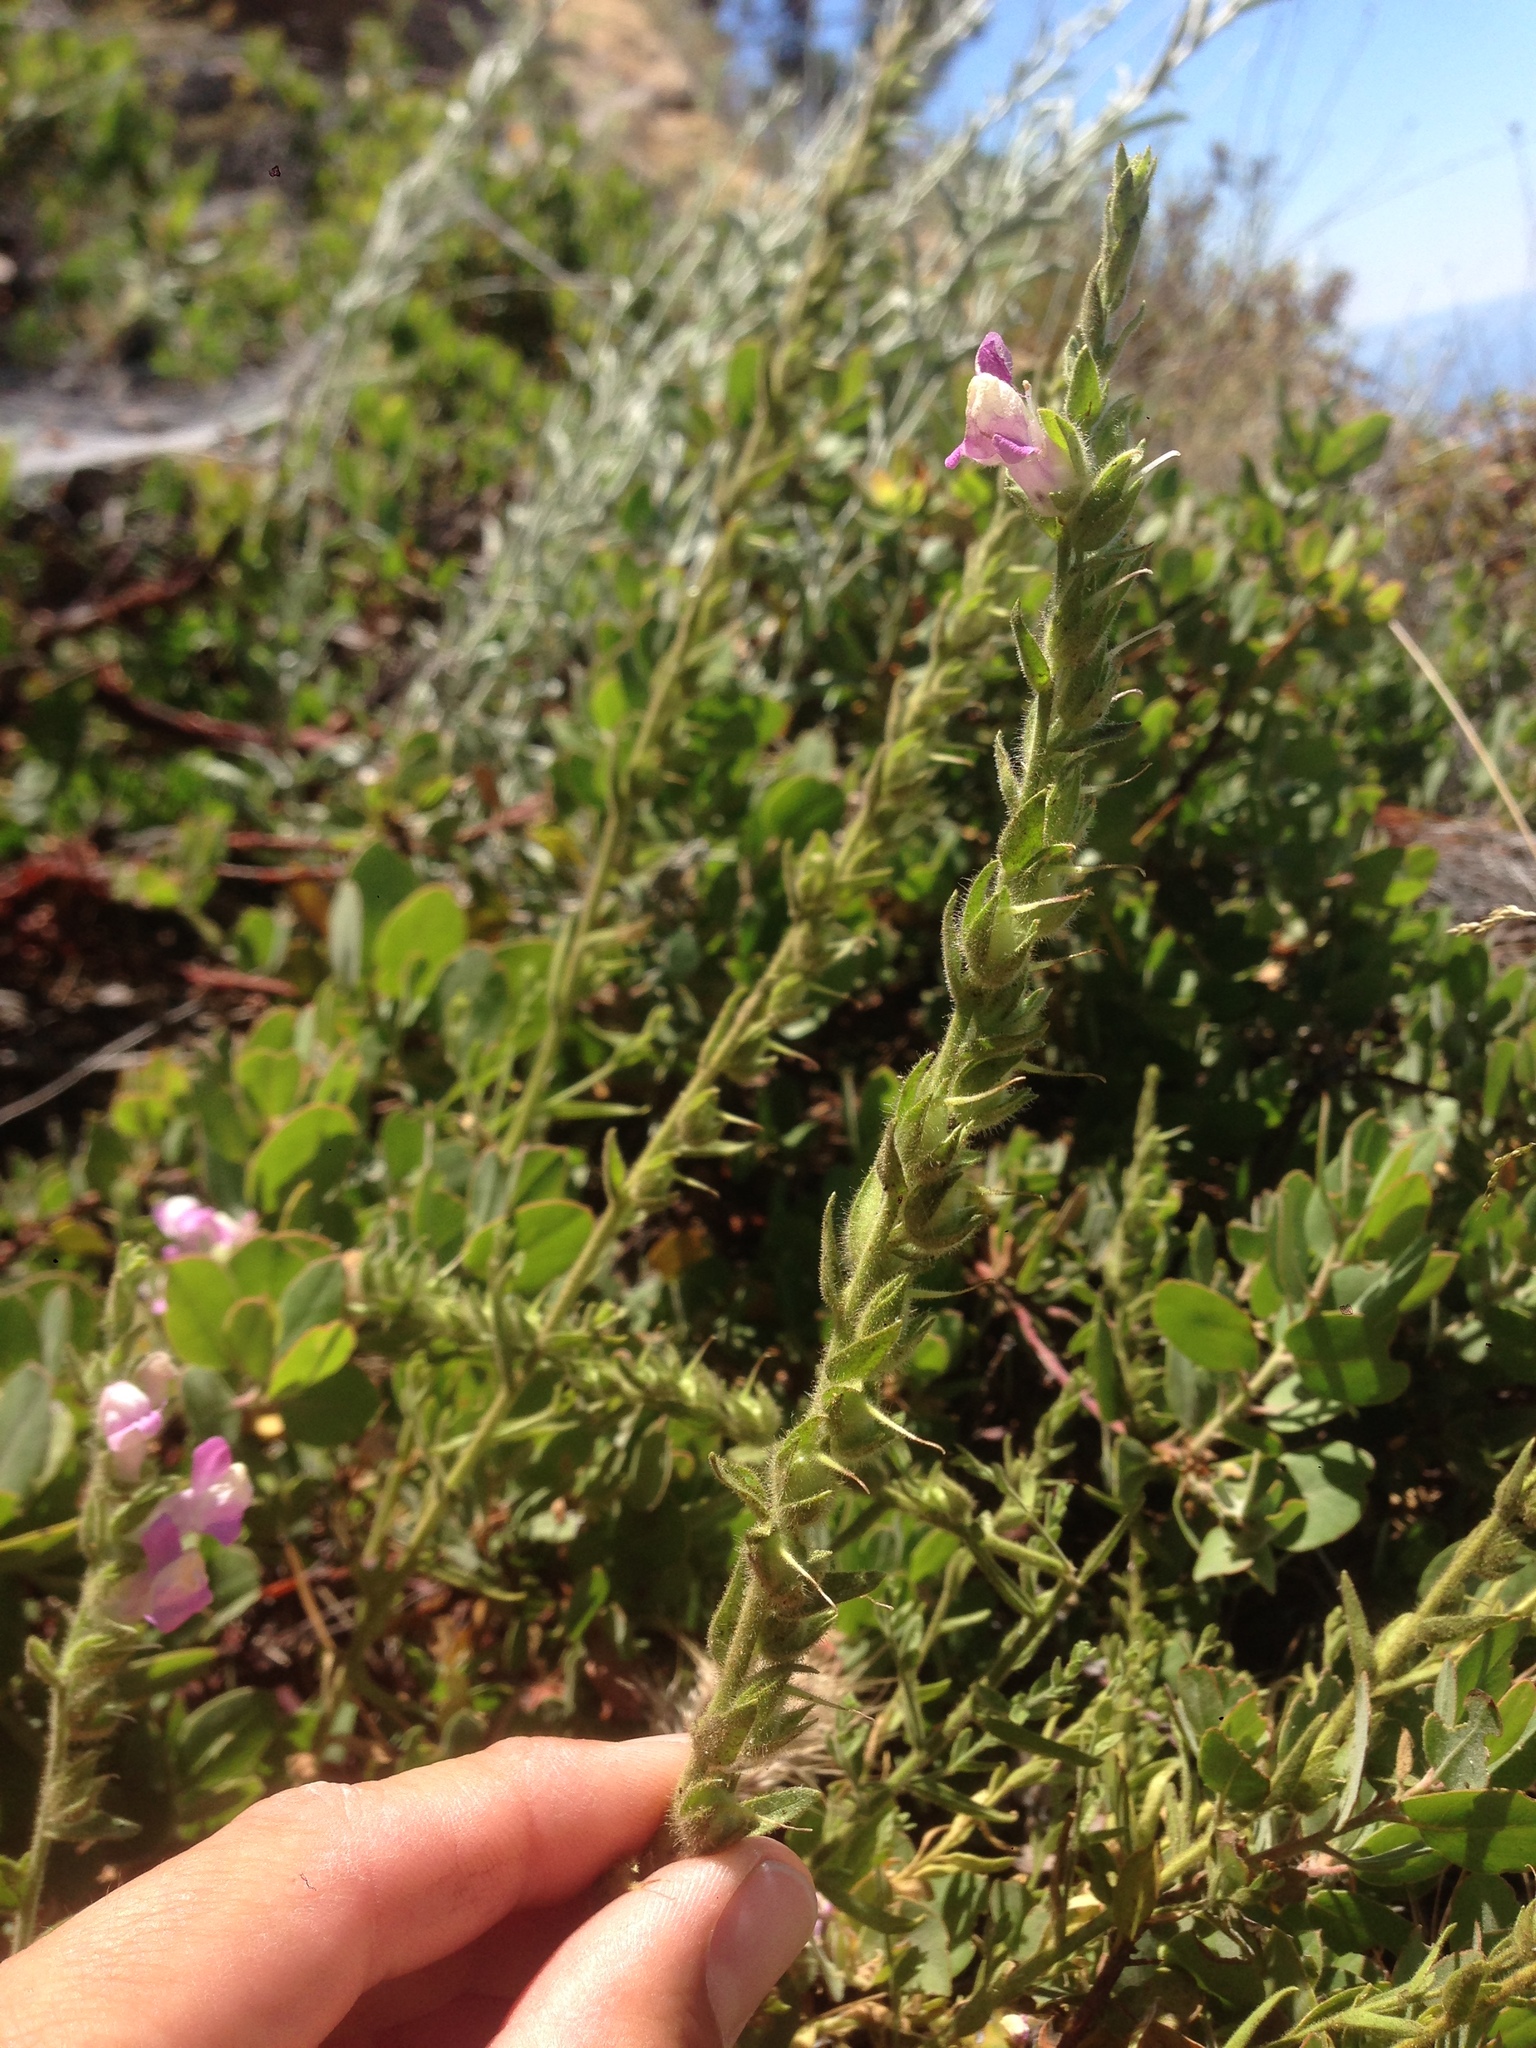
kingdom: Plantae
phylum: Tracheophyta
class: Magnoliopsida
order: Lamiales
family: Plantaginaceae
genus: Sairocarpus
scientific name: Sairocarpus multiflorus
